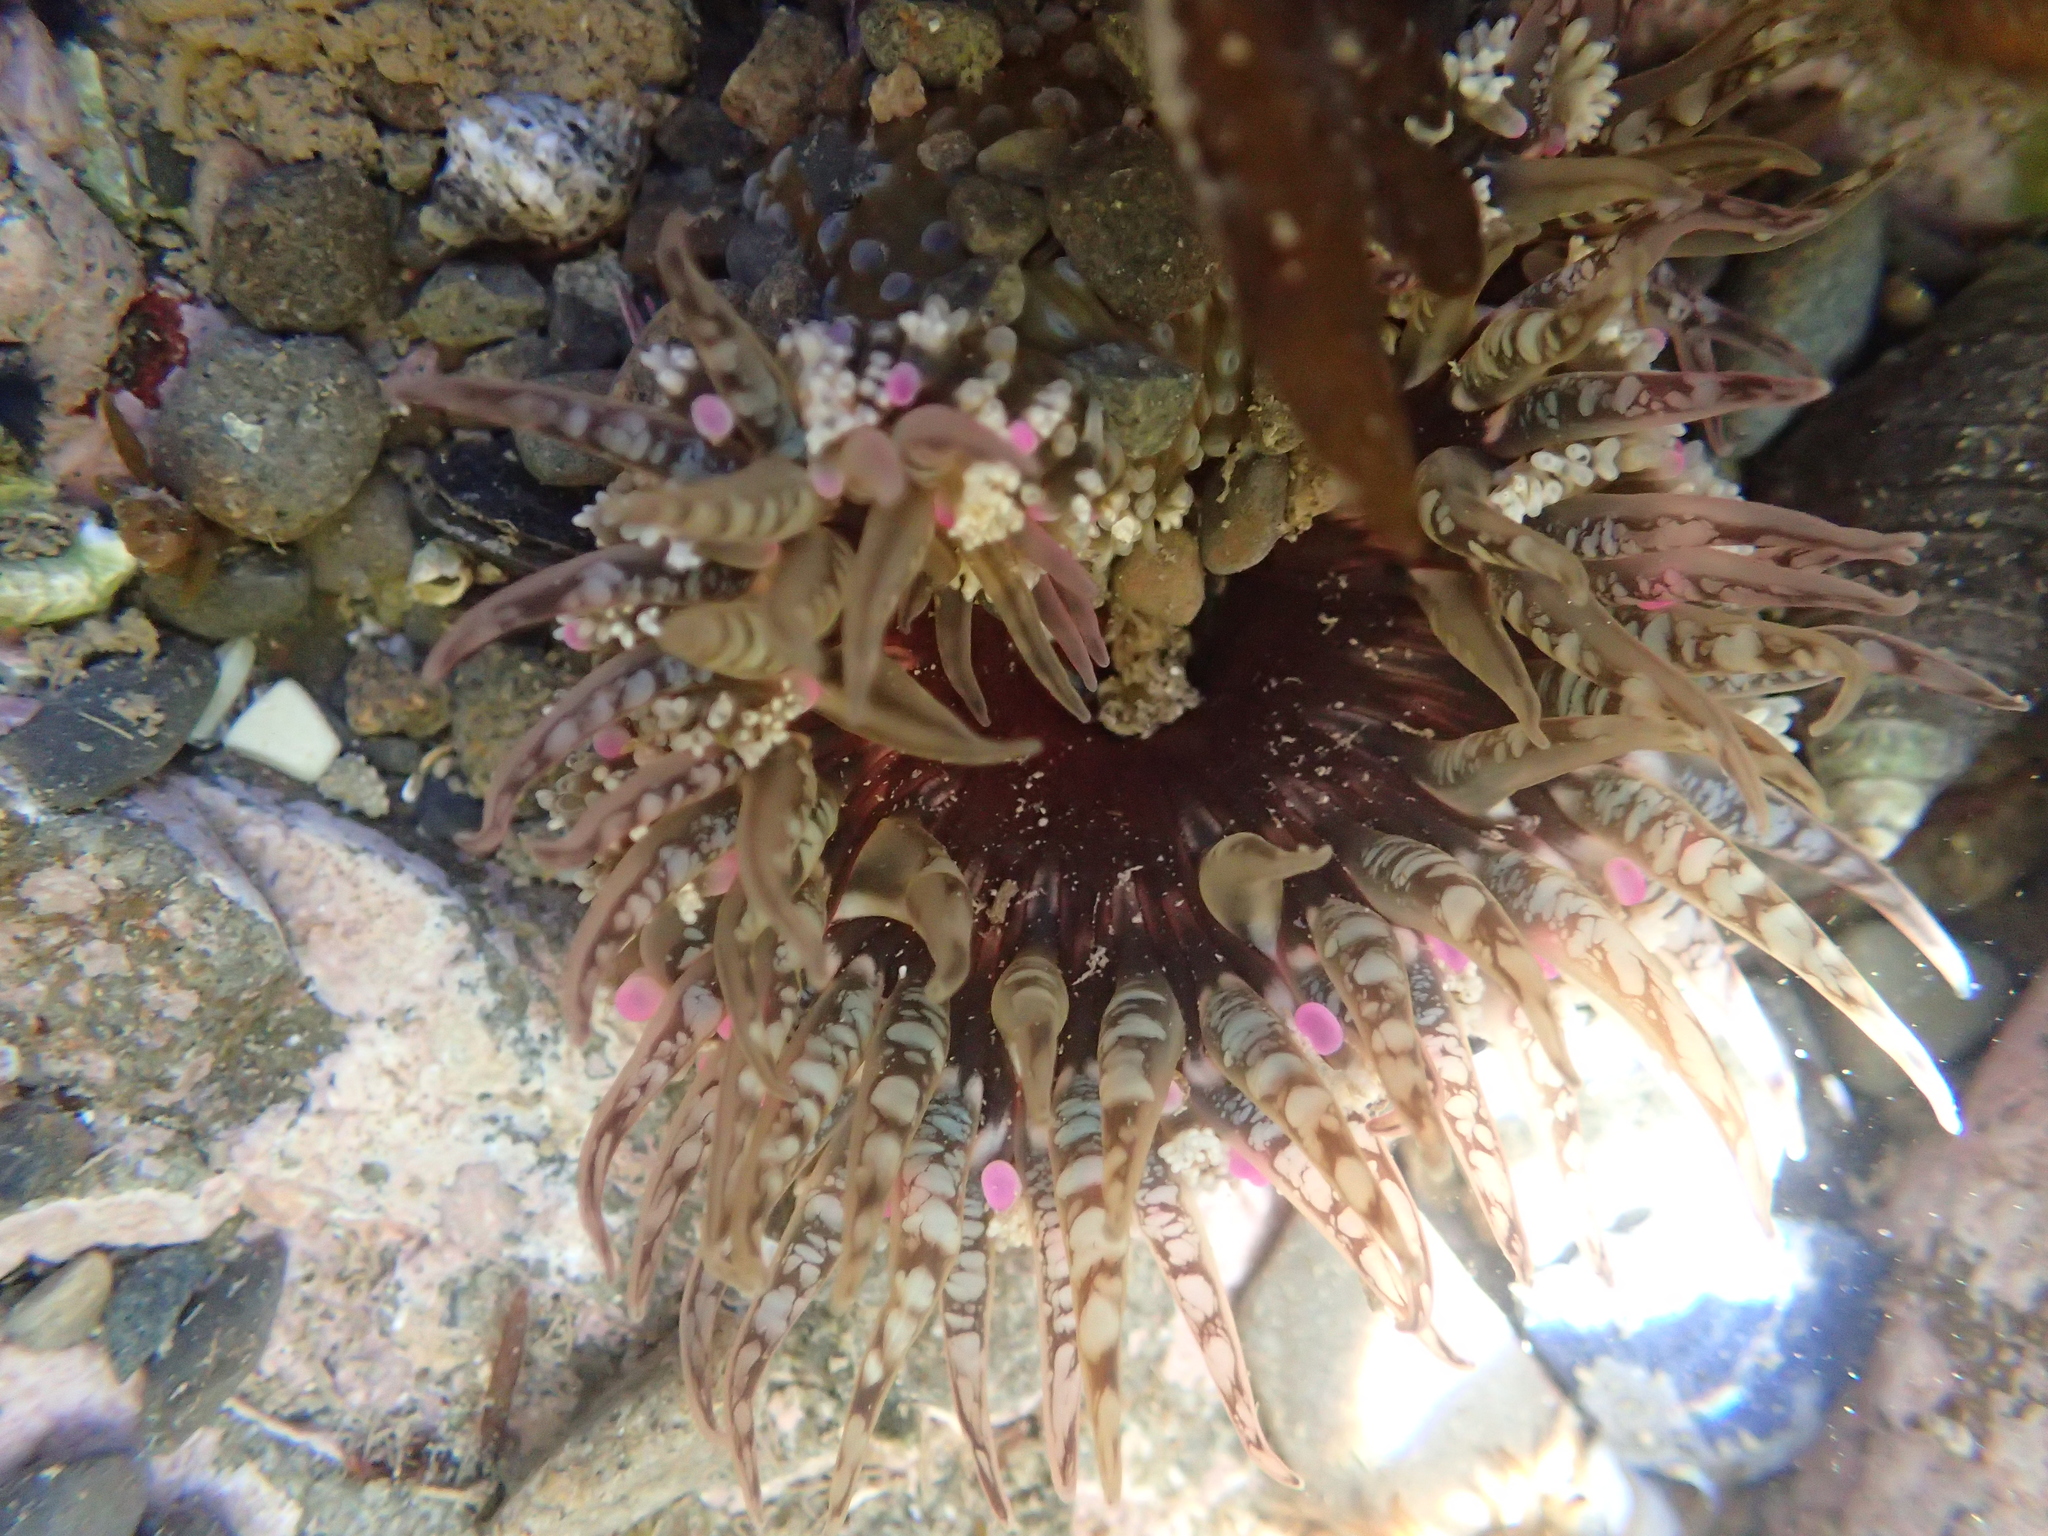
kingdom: Animalia
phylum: Cnidaria
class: Anthozoa
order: Actiniaria
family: Actiniidae
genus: Oulactis
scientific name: Oulactis muscosa
